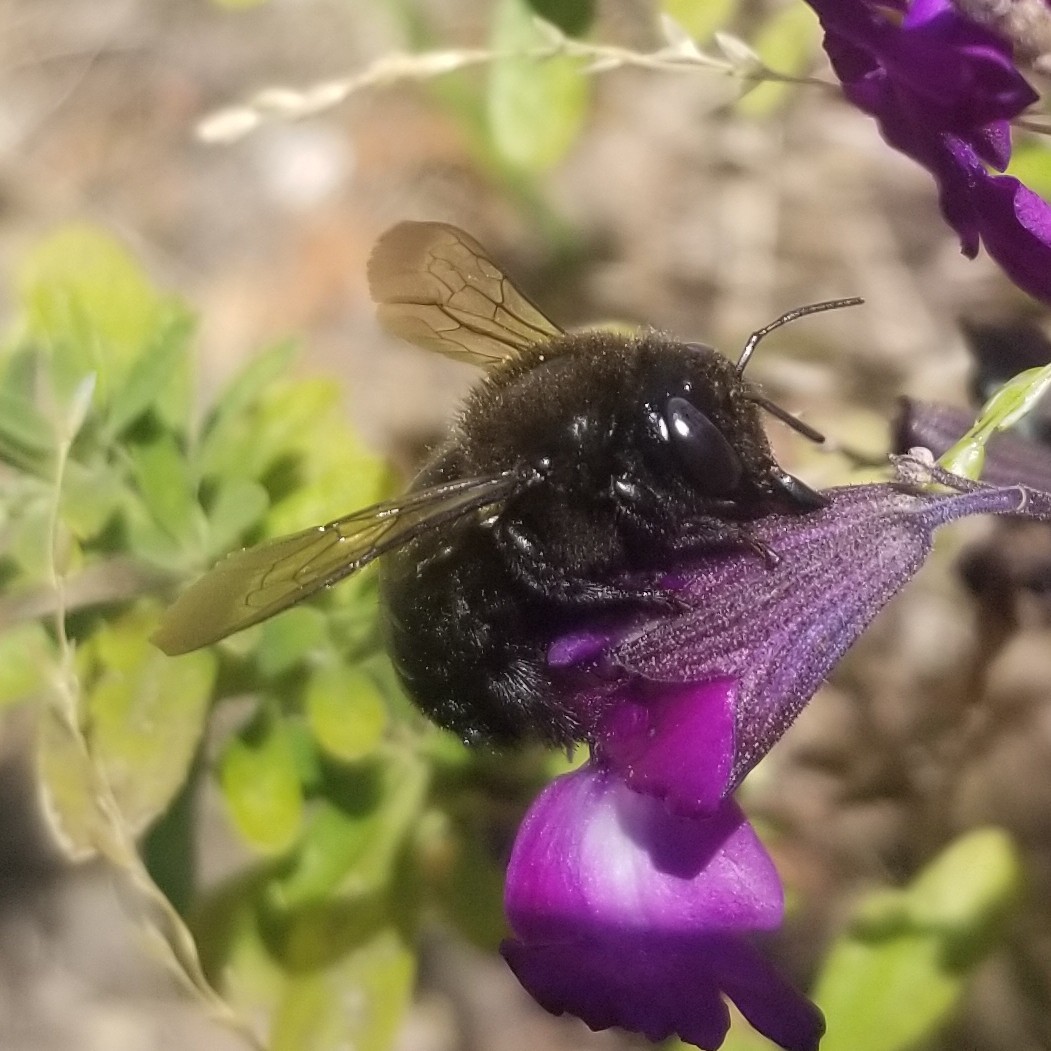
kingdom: Animalia
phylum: Arthropoda
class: Insecta
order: Hymenoptera
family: Apidae
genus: Xylocopa
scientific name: Xylocopa tabaniformis
